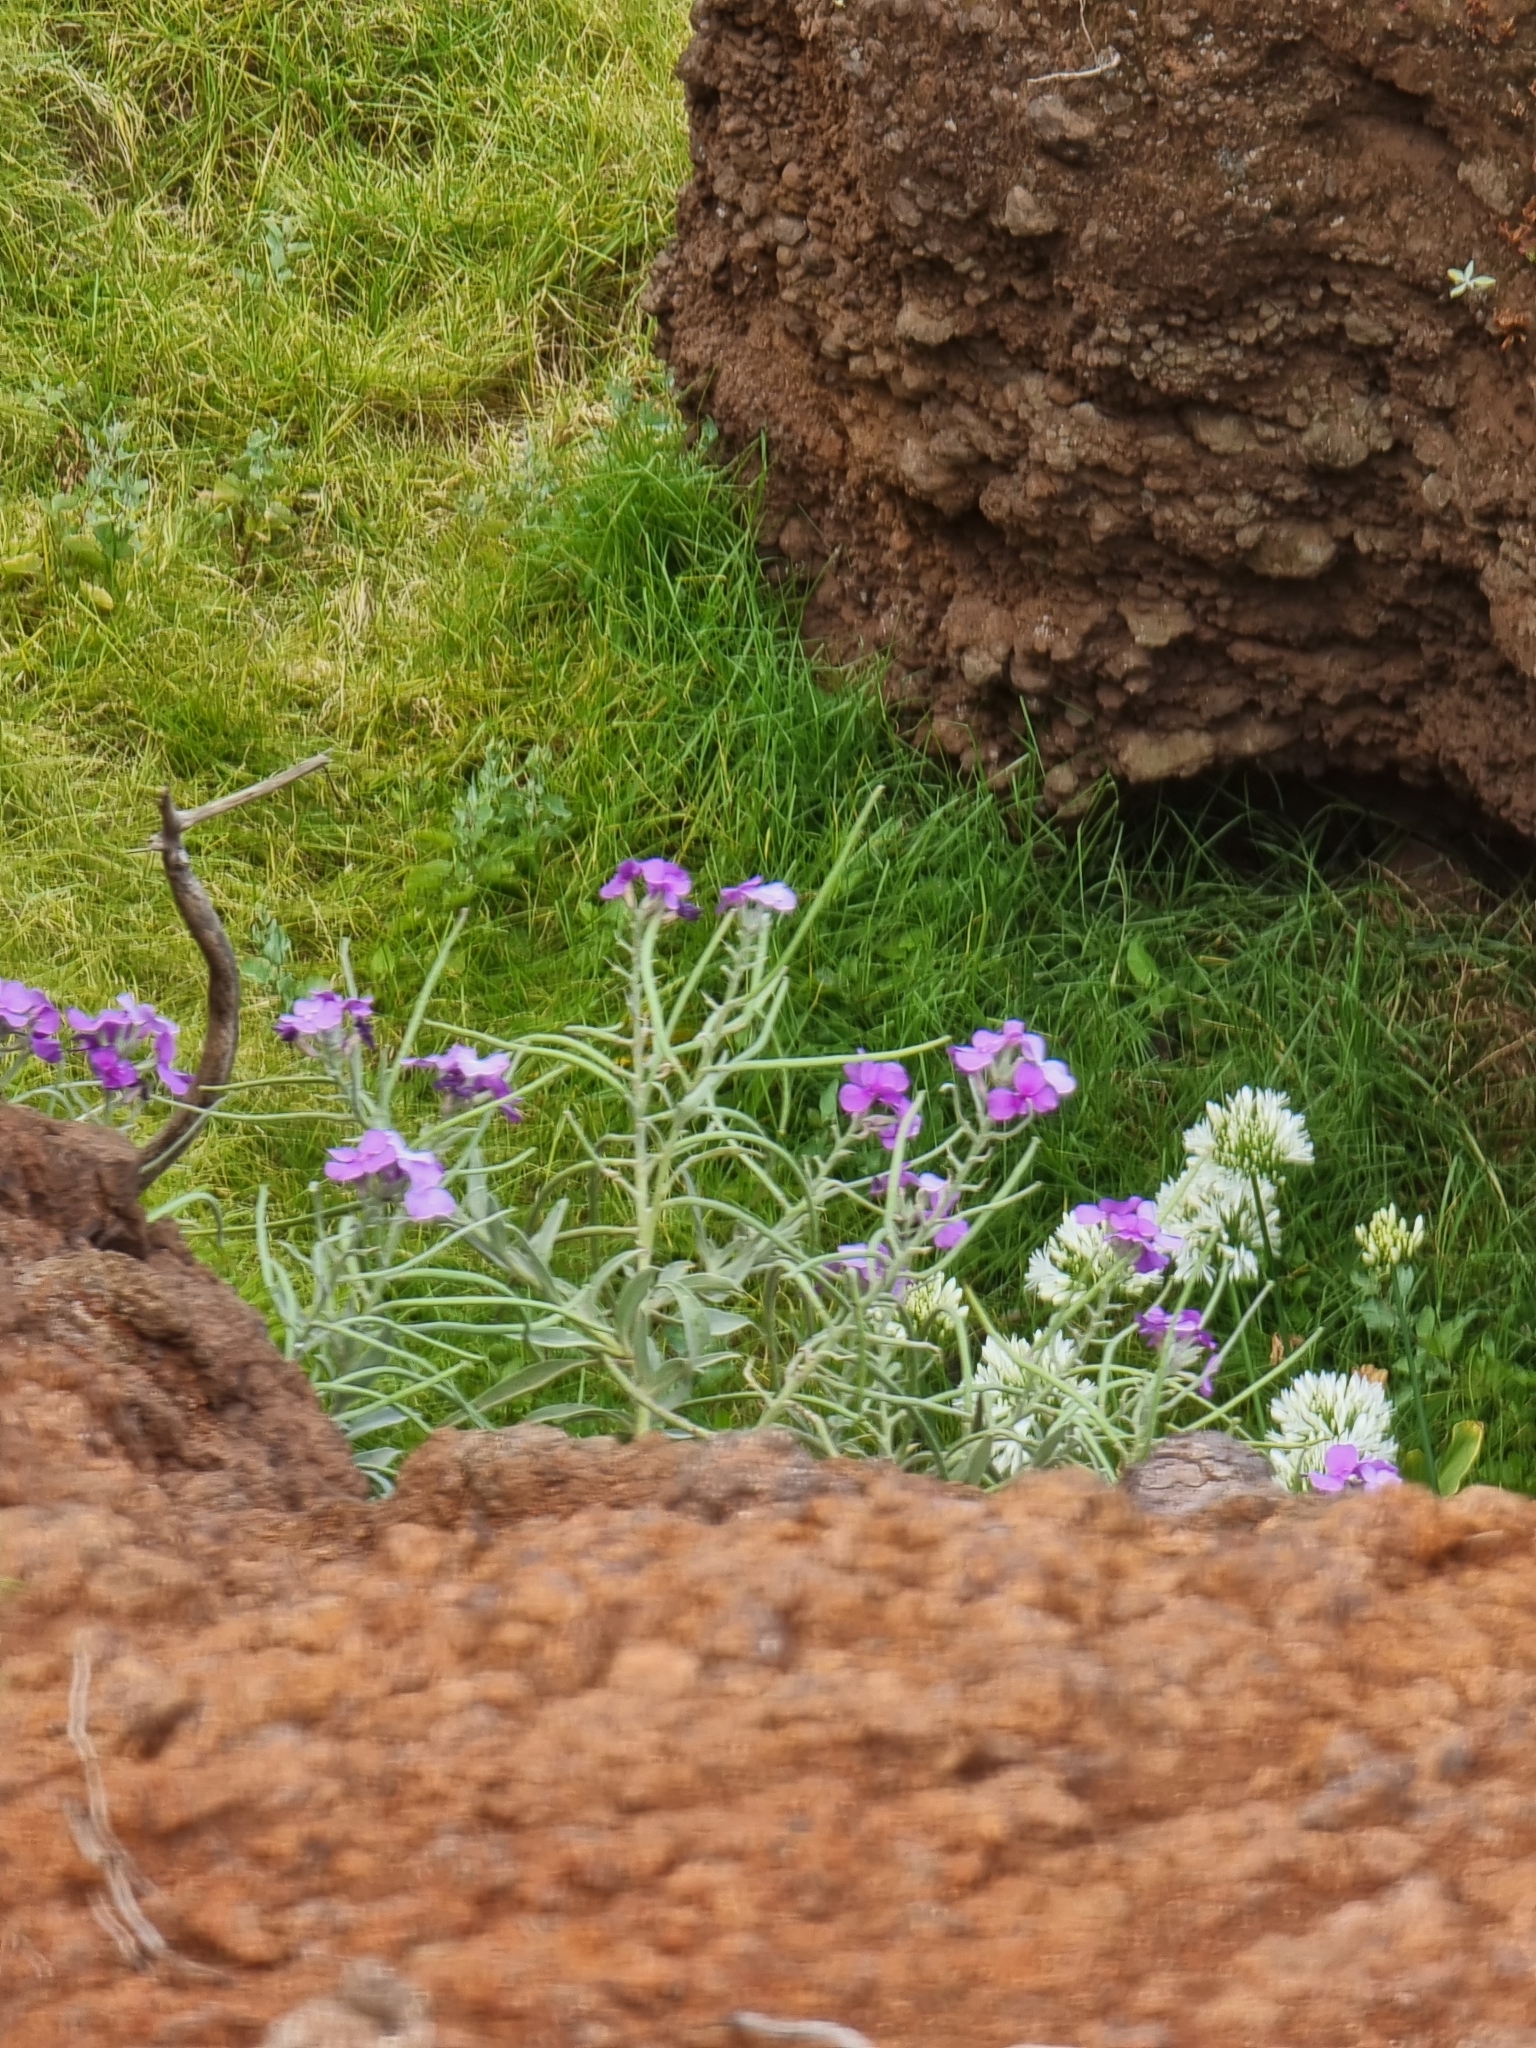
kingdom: Plantae
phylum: Tracheophyta
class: Magnoliopsida
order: Brassicales
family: Brassicaceae
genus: Matthiola
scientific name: Matthiola maderensis
